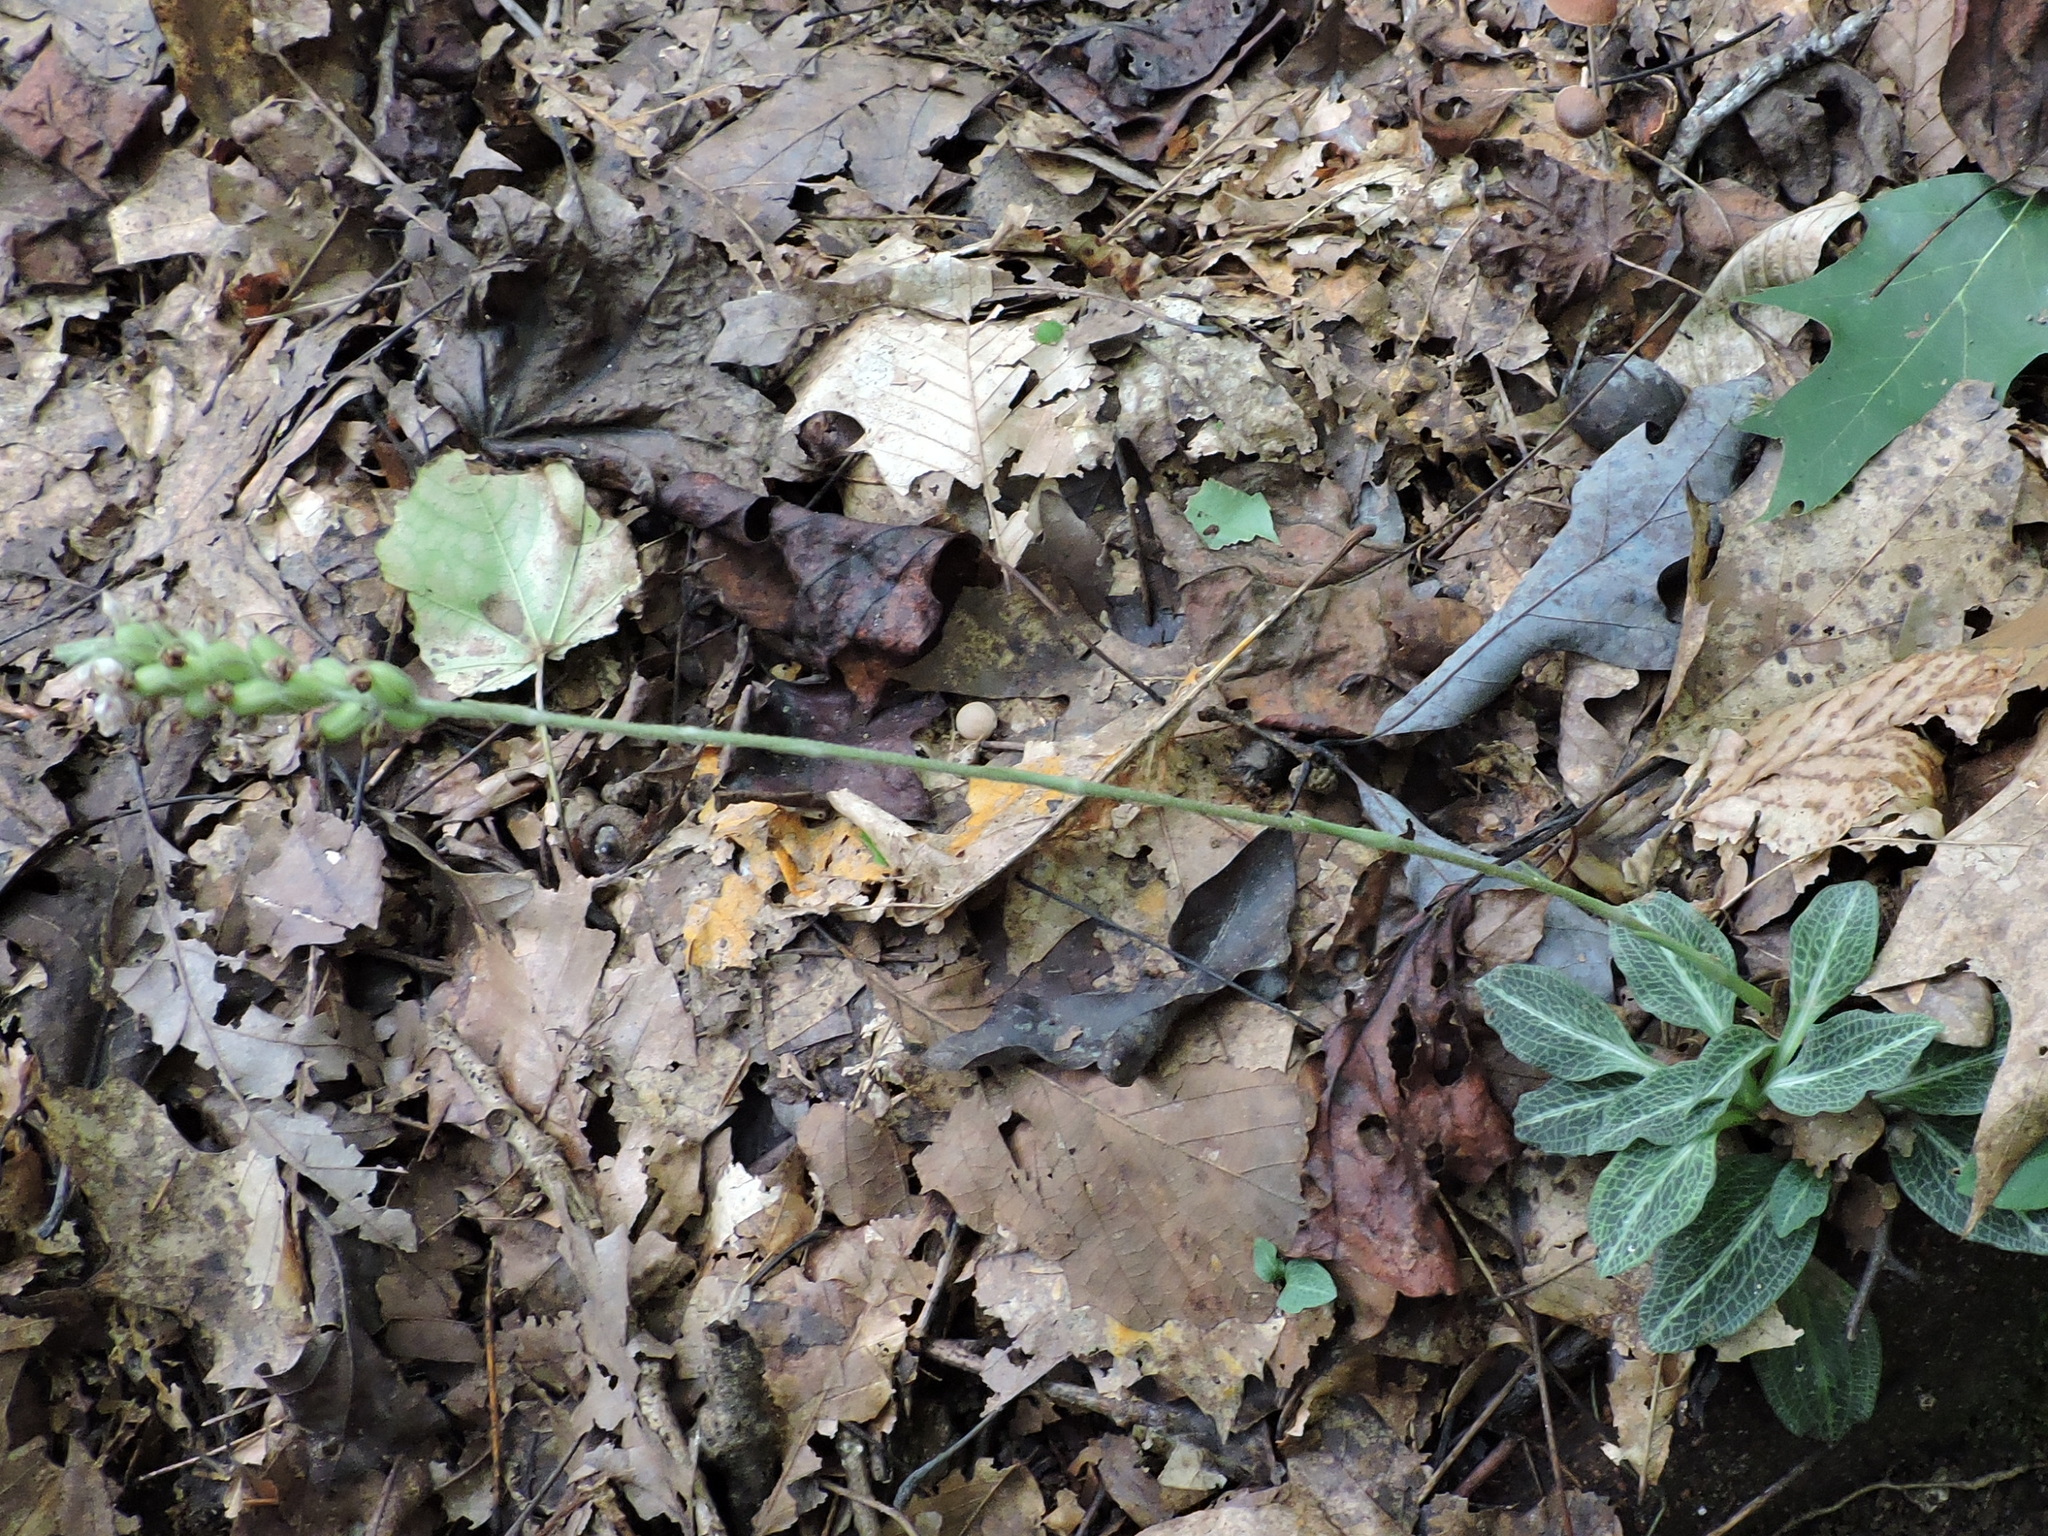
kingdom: Plantae
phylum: Tracheophyta
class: Liliopsida
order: Asparagales
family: Orchidaceae
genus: Goodyera
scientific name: Goodyera pubescens
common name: Downy rattlesnake-plantain
